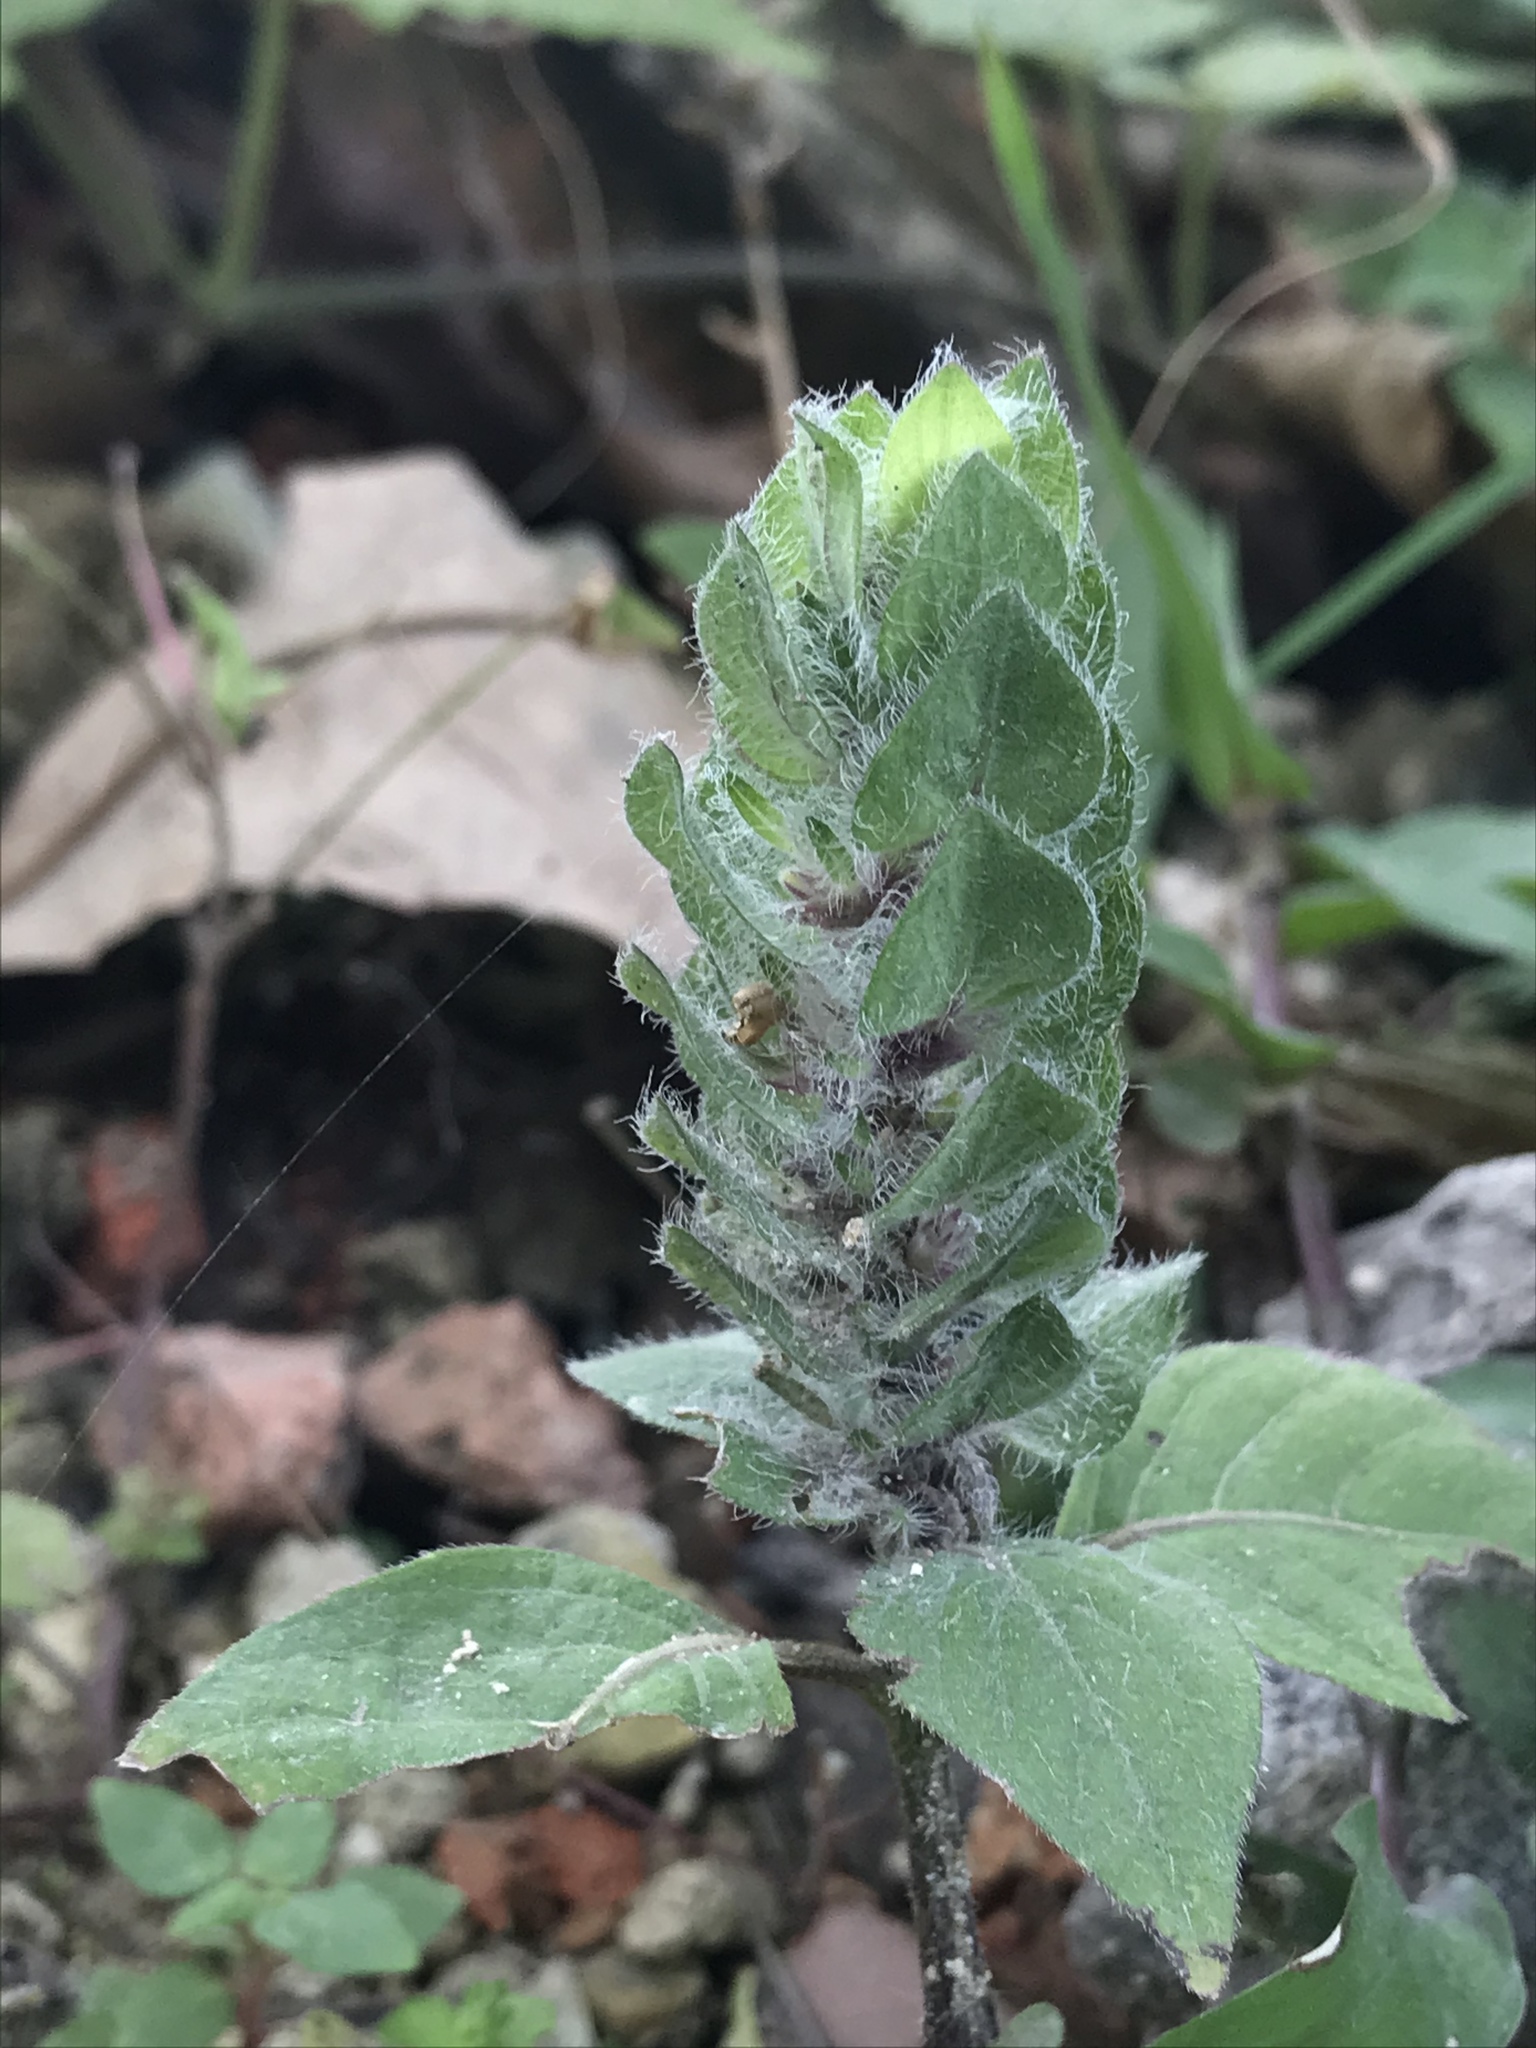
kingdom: Plantae
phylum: Tracheophyta
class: Magnoliopsida
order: Lamiales
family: Acanthaceae
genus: Ruellia
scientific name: Ruellia blechum
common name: Browne's blechum
